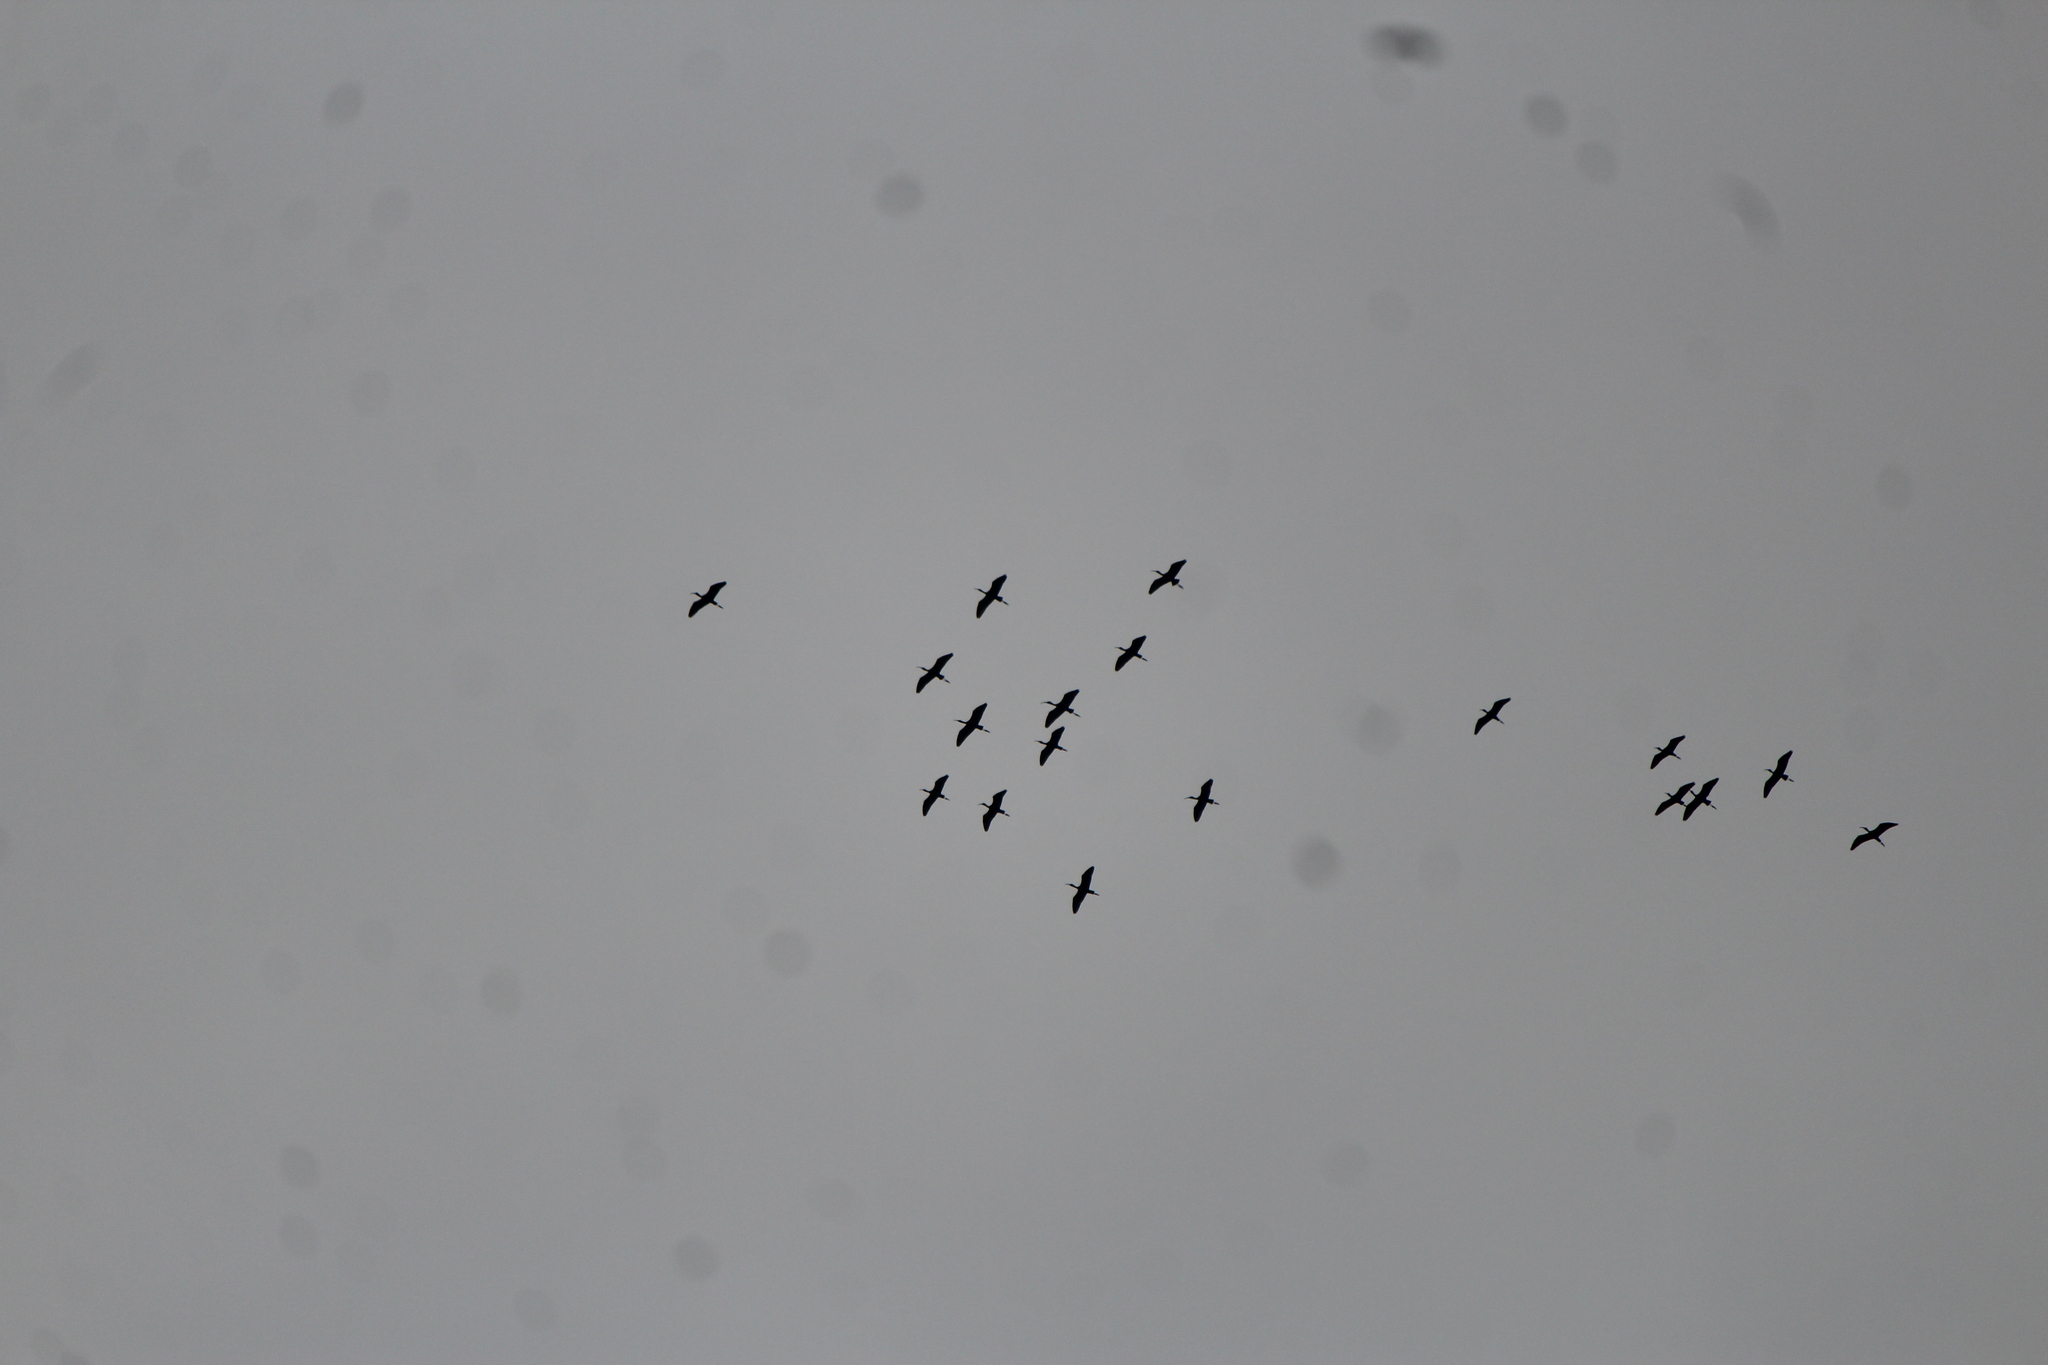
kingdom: Animalia
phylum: Chordata
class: Aves
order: Pelecaniformes
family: Threskiornithidae
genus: Plegadis
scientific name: Plegadis chihi
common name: White-faced ibis
